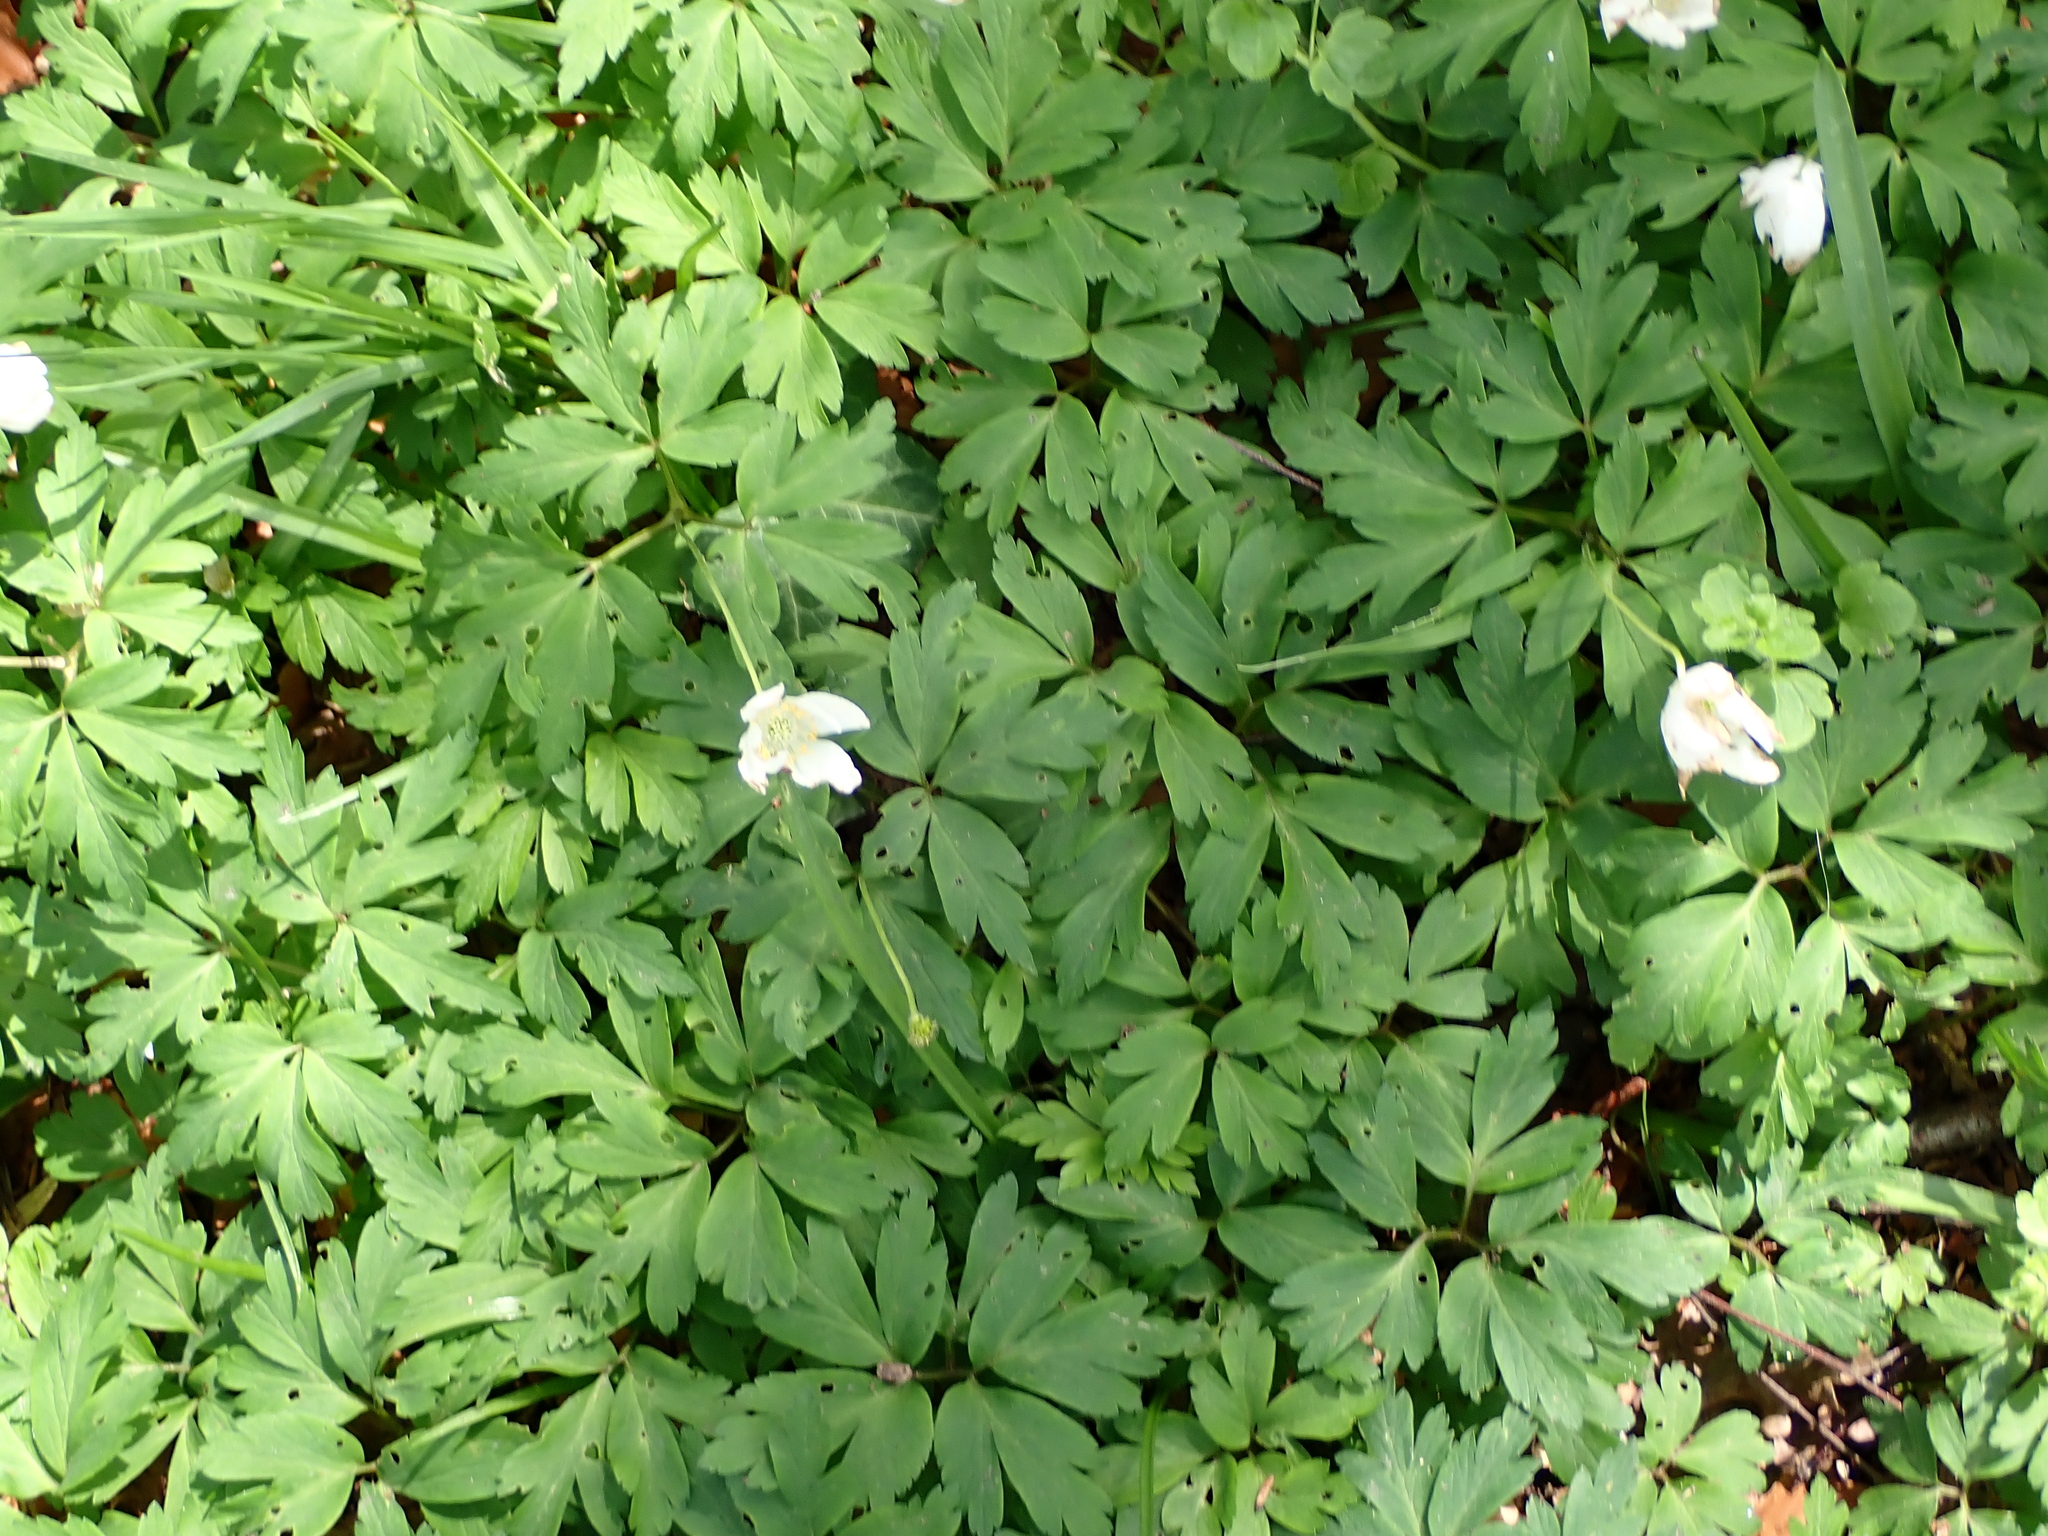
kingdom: Plantae
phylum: Tracheophyta
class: Magnoliopsida
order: Ranunculales
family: Ranunculaceae
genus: Anemone
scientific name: Anemone nemorosa
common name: Wood anemone
